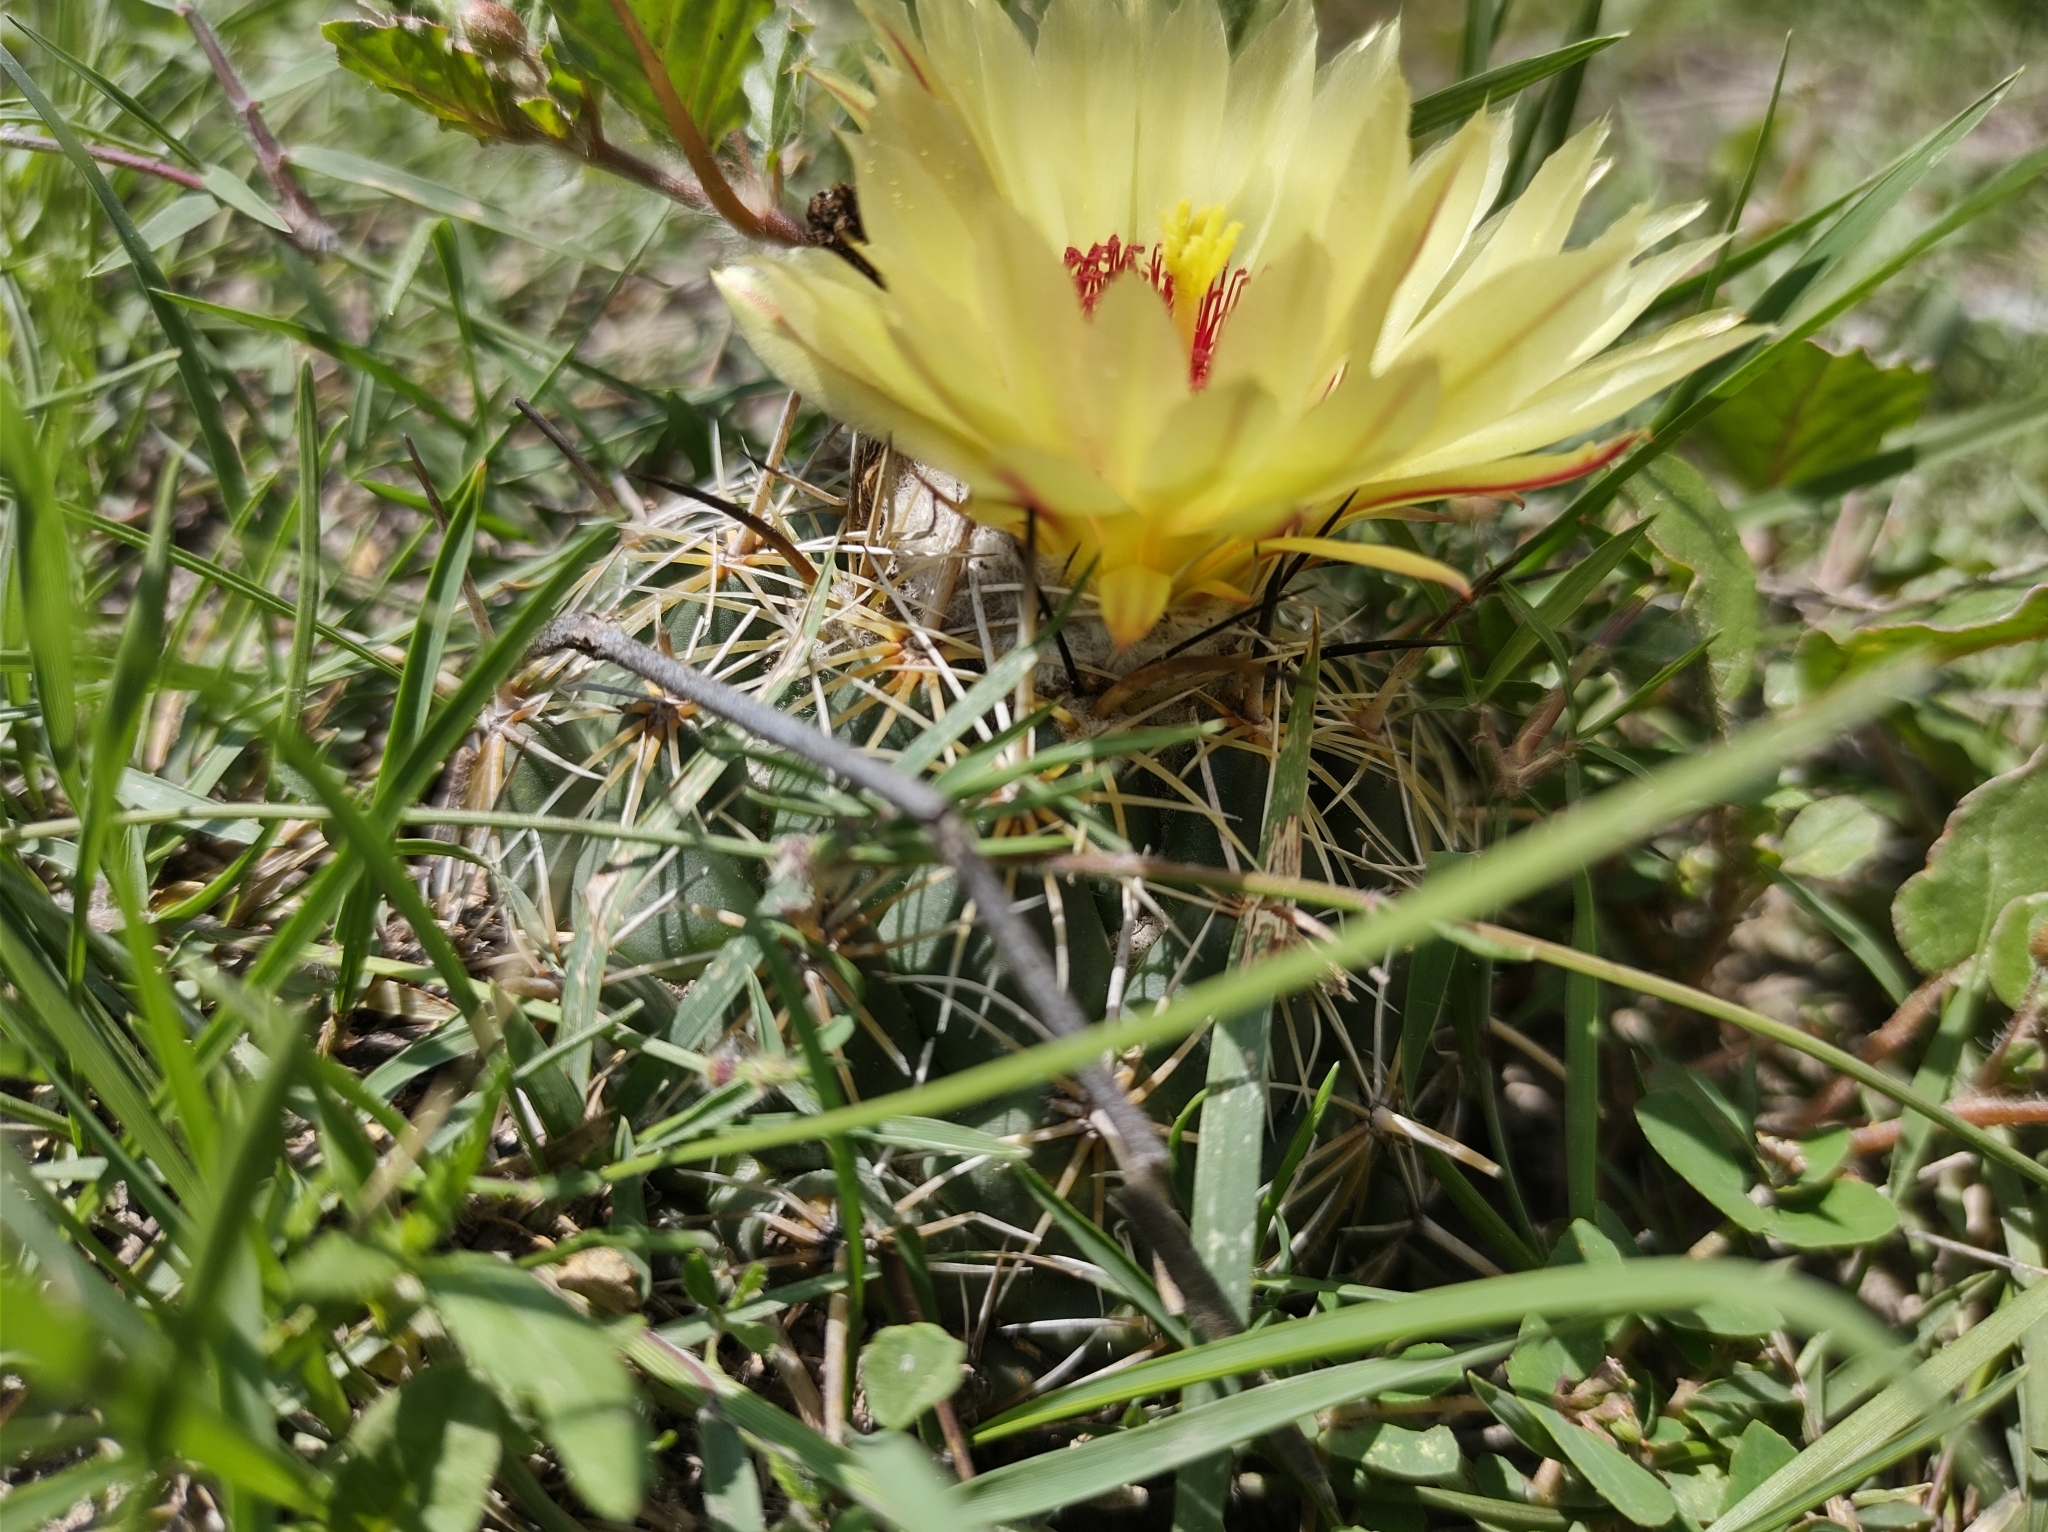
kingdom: Plantae
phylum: Tracheophyta
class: Magnoliopsida
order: Caryophyllales
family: Cactaceae
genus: Coryphantha
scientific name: Coryphantha pallida
